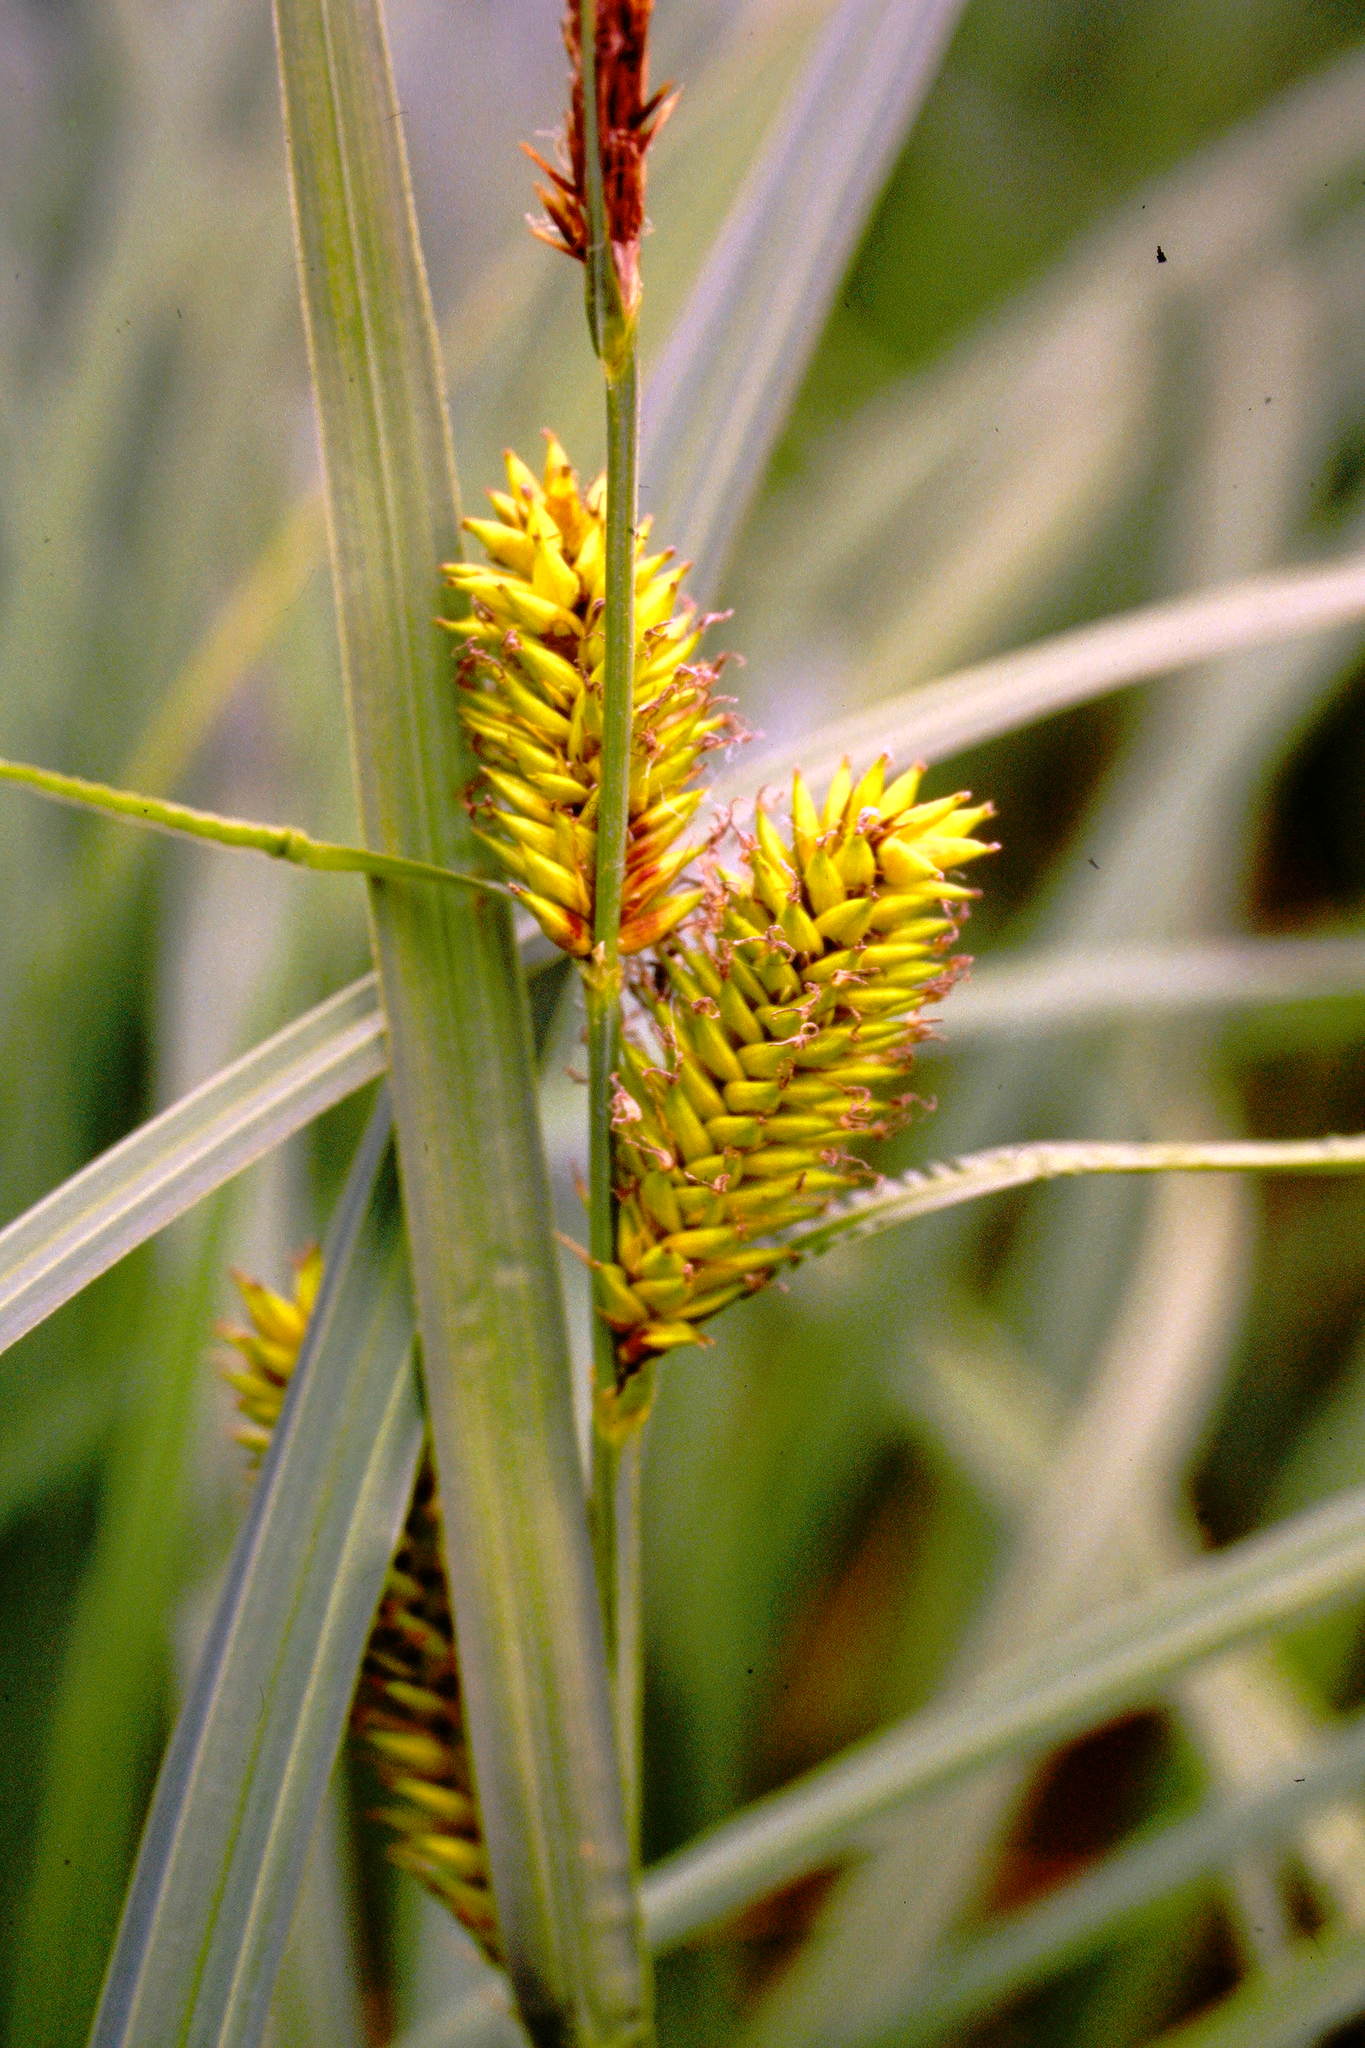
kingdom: Plantae
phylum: Tracheophyta
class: Liliopsida
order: Poales
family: Cyperaceae
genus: Carex
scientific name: Carex lacustris
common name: Common lake sedge
